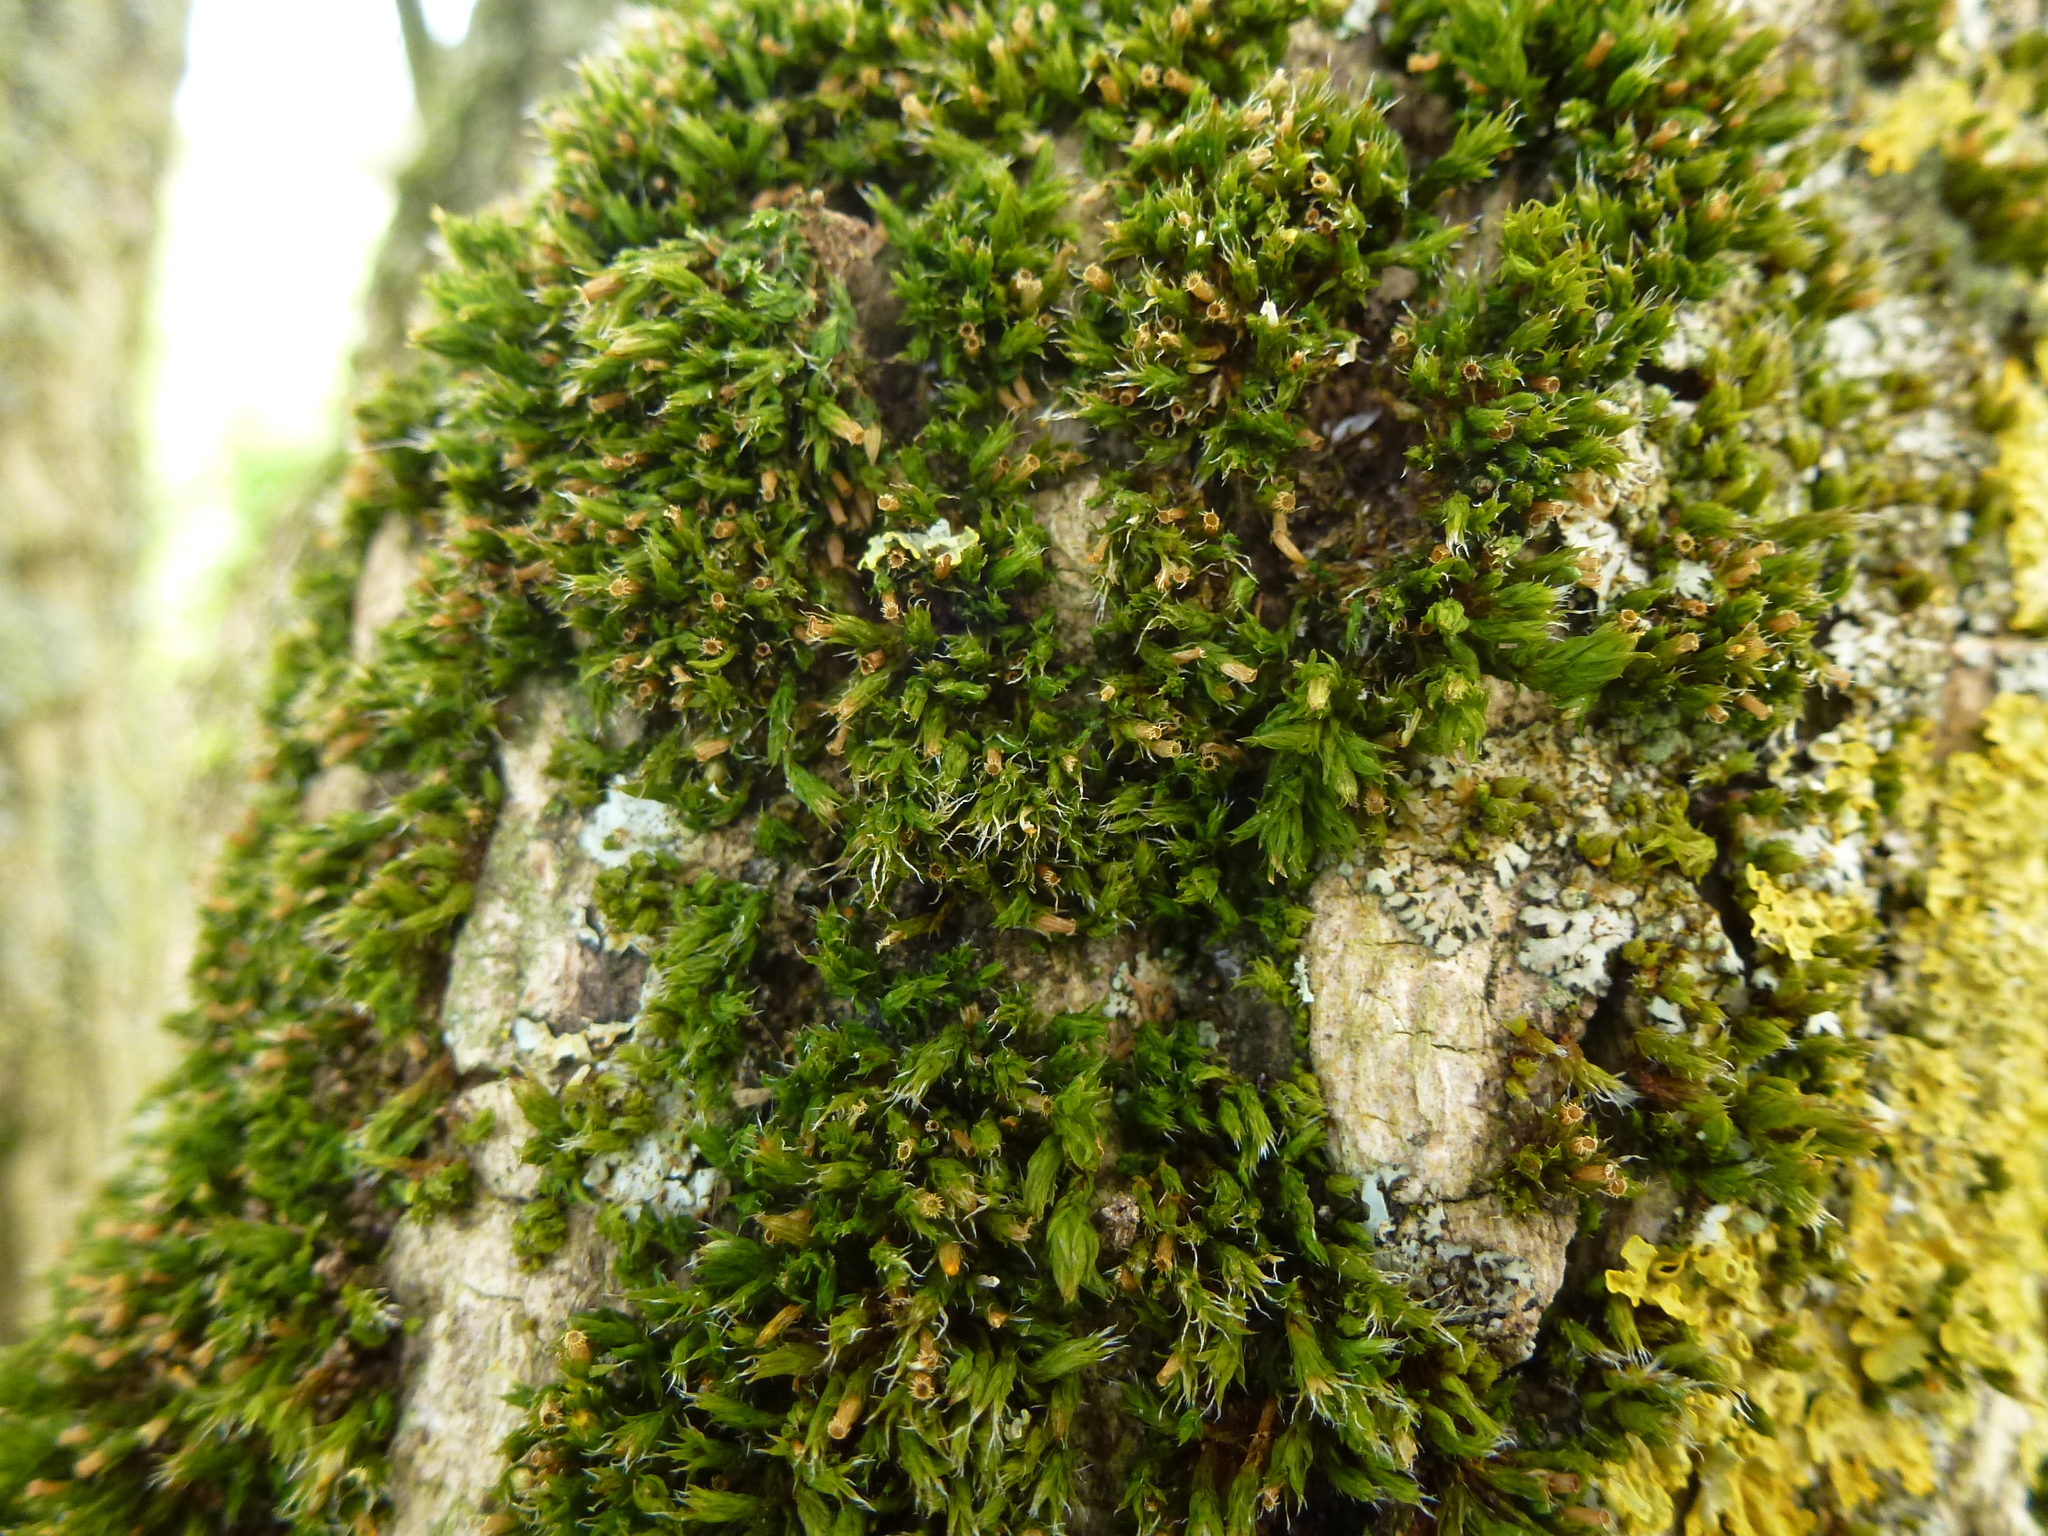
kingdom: Plantae
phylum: Bryophyta
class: Bryopsida
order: Orthotrichales
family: Orthotrichaceae
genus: Orthotrichum
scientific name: Orthotrichum diaphanum
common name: White-tipped bristle-moss
